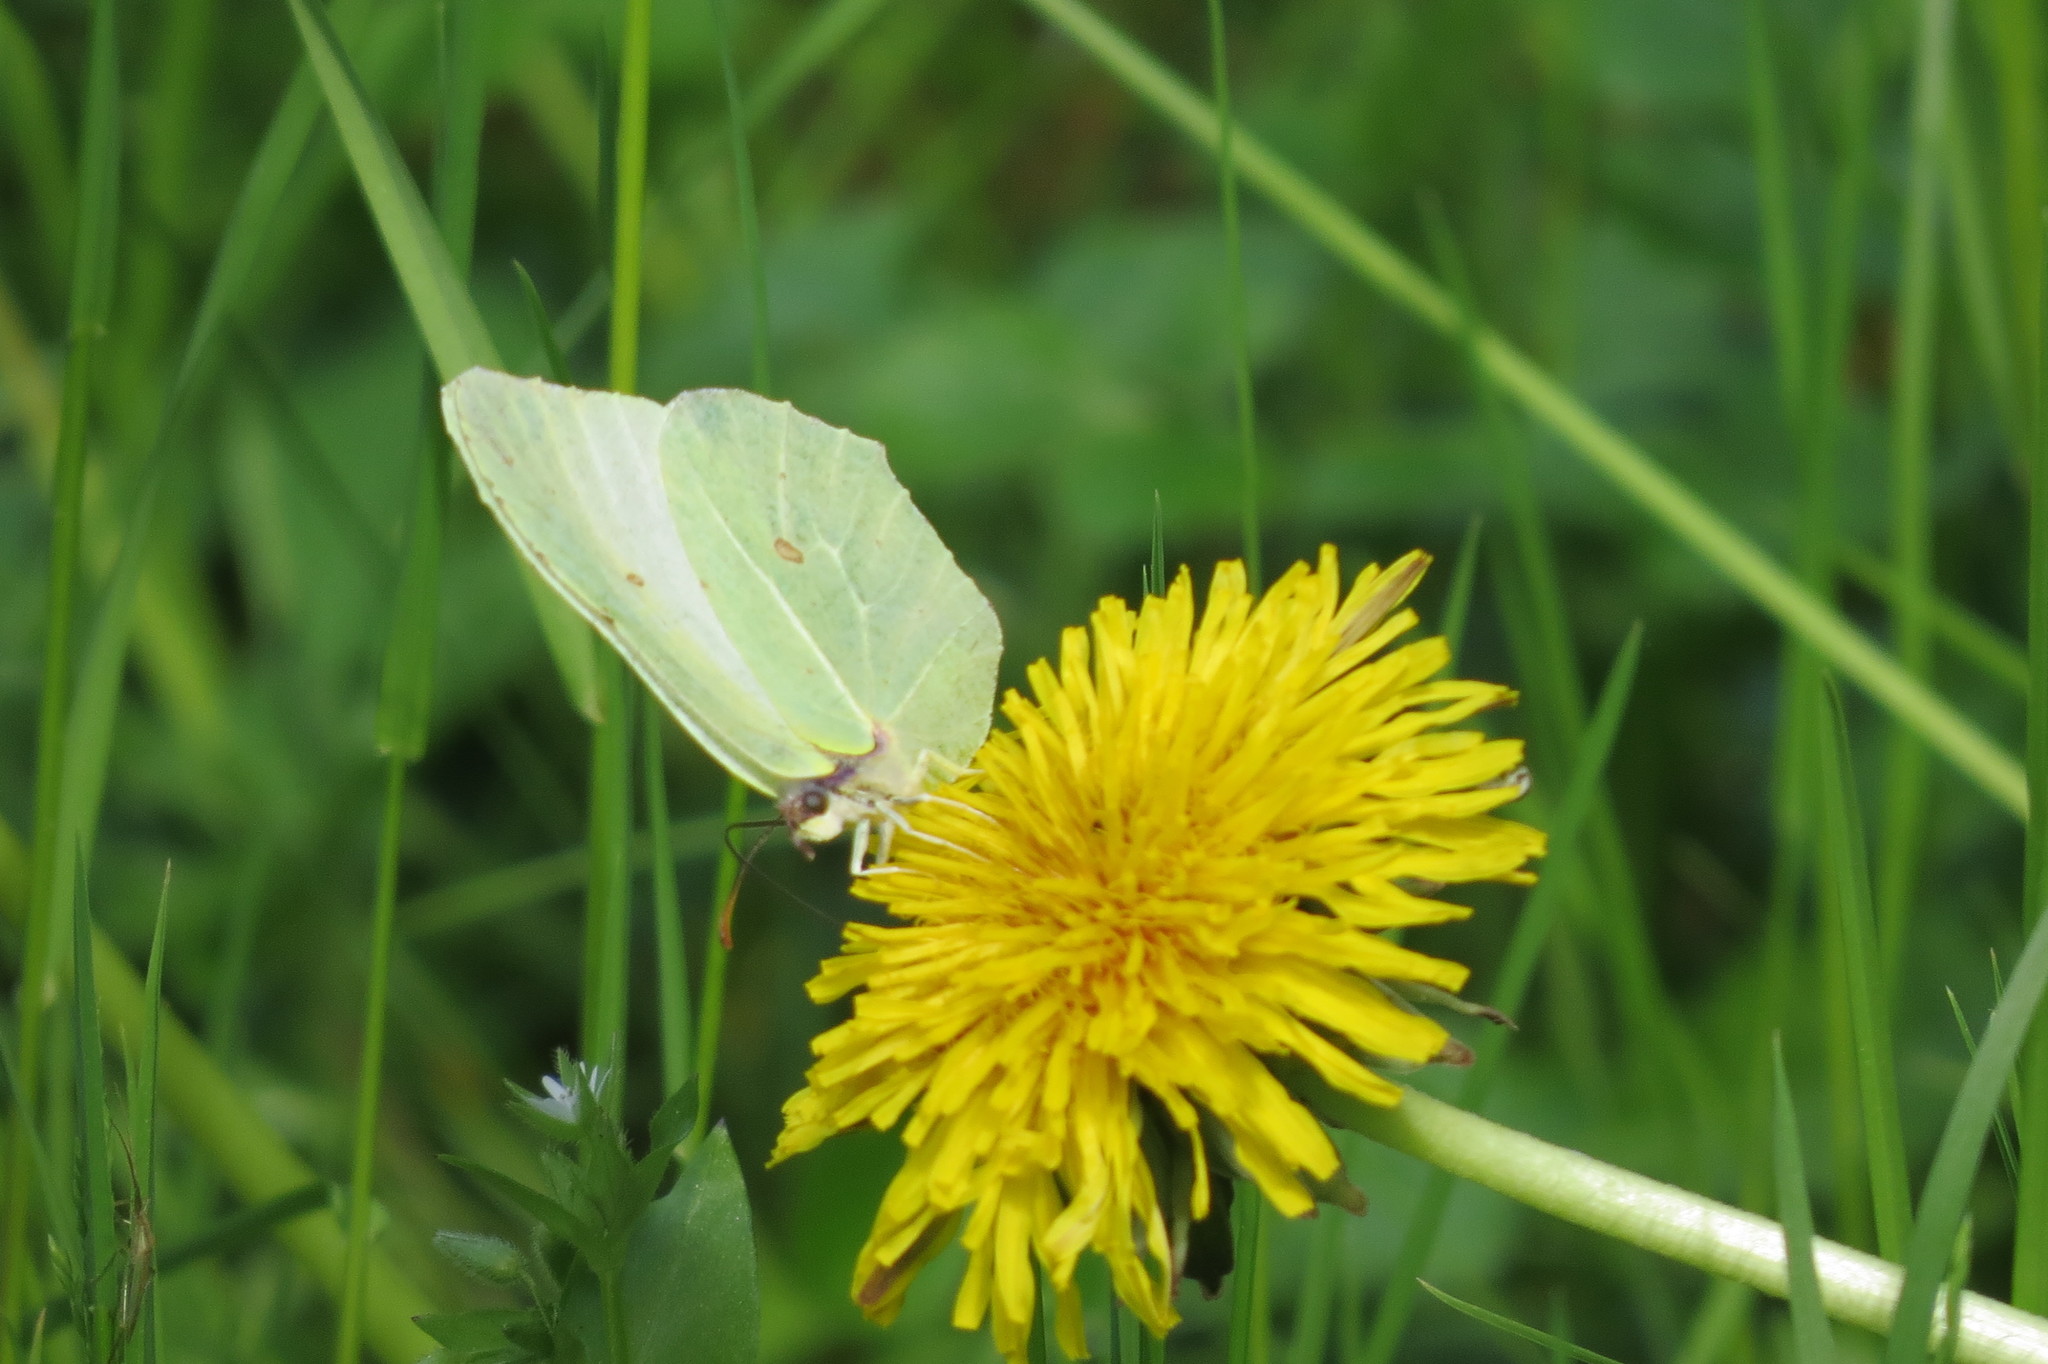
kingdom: Animalia
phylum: Arthropoda
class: Insecta
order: Lepidoptera
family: Pieridae
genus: Gonepteryx
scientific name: Gonepteryx rhamni
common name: Brimstone
